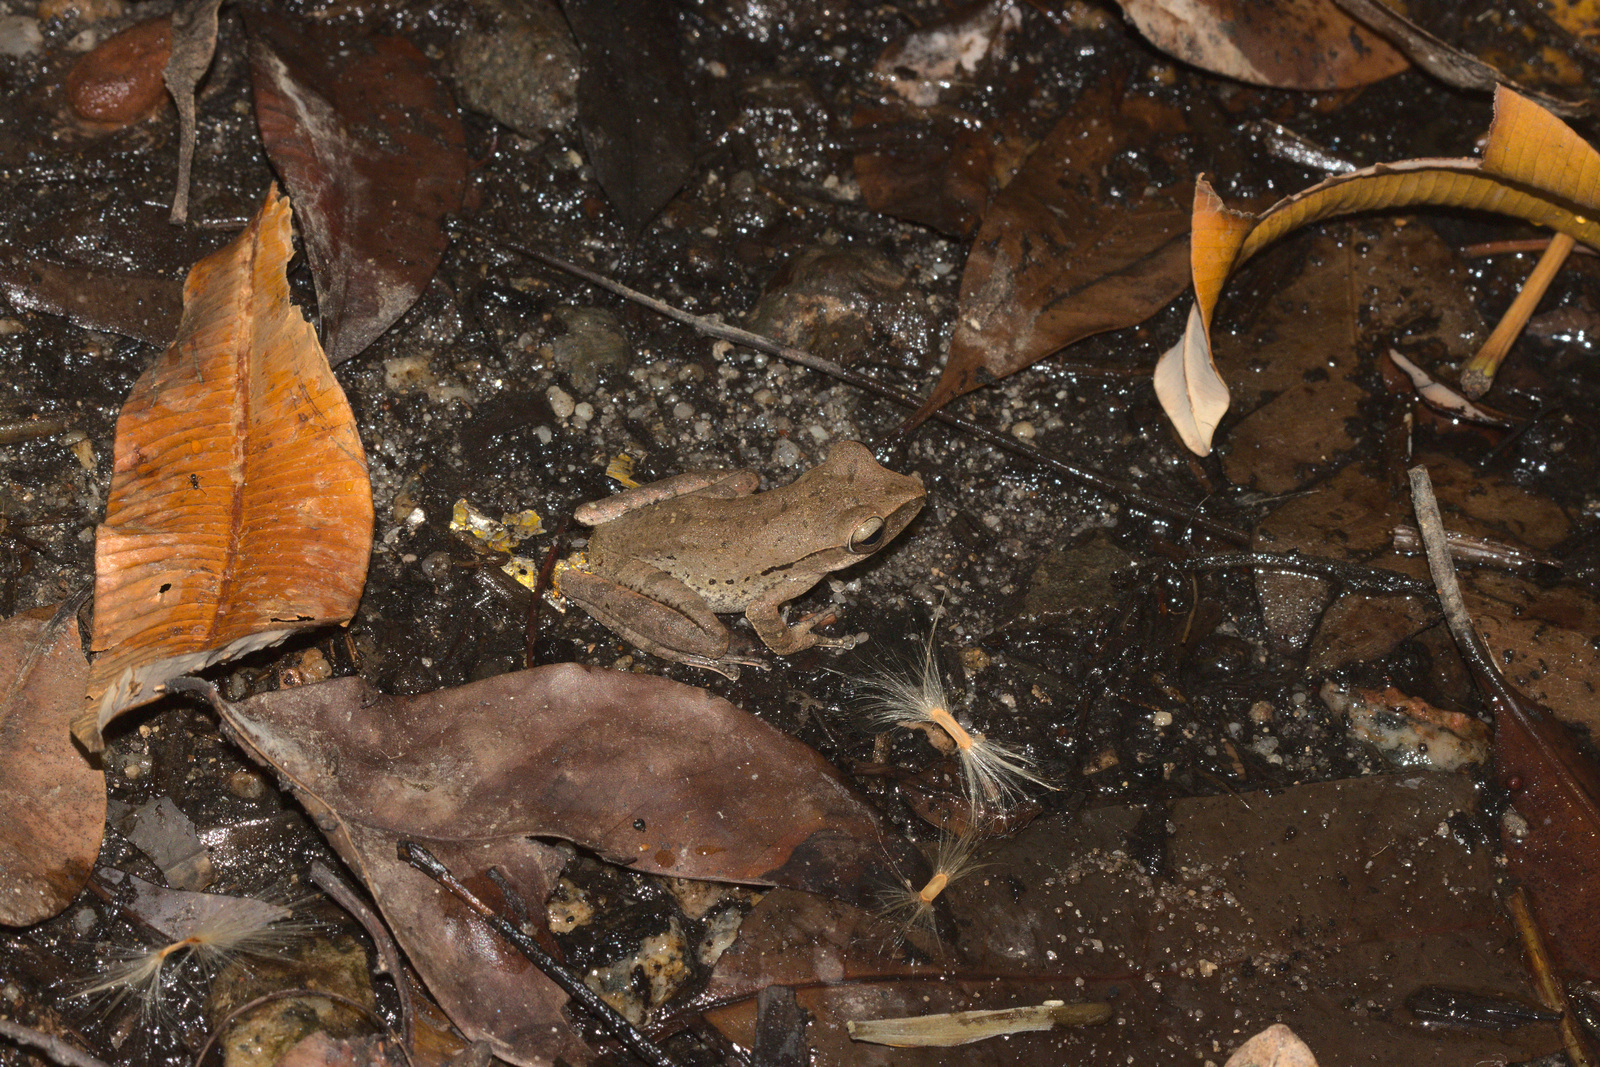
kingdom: Animalia
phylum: Chordata
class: Amphibia
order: Anura
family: Rhacophoridae
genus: Polypedates
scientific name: Polypedates leucomystax
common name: Common tree frog/four-lined tree frog
